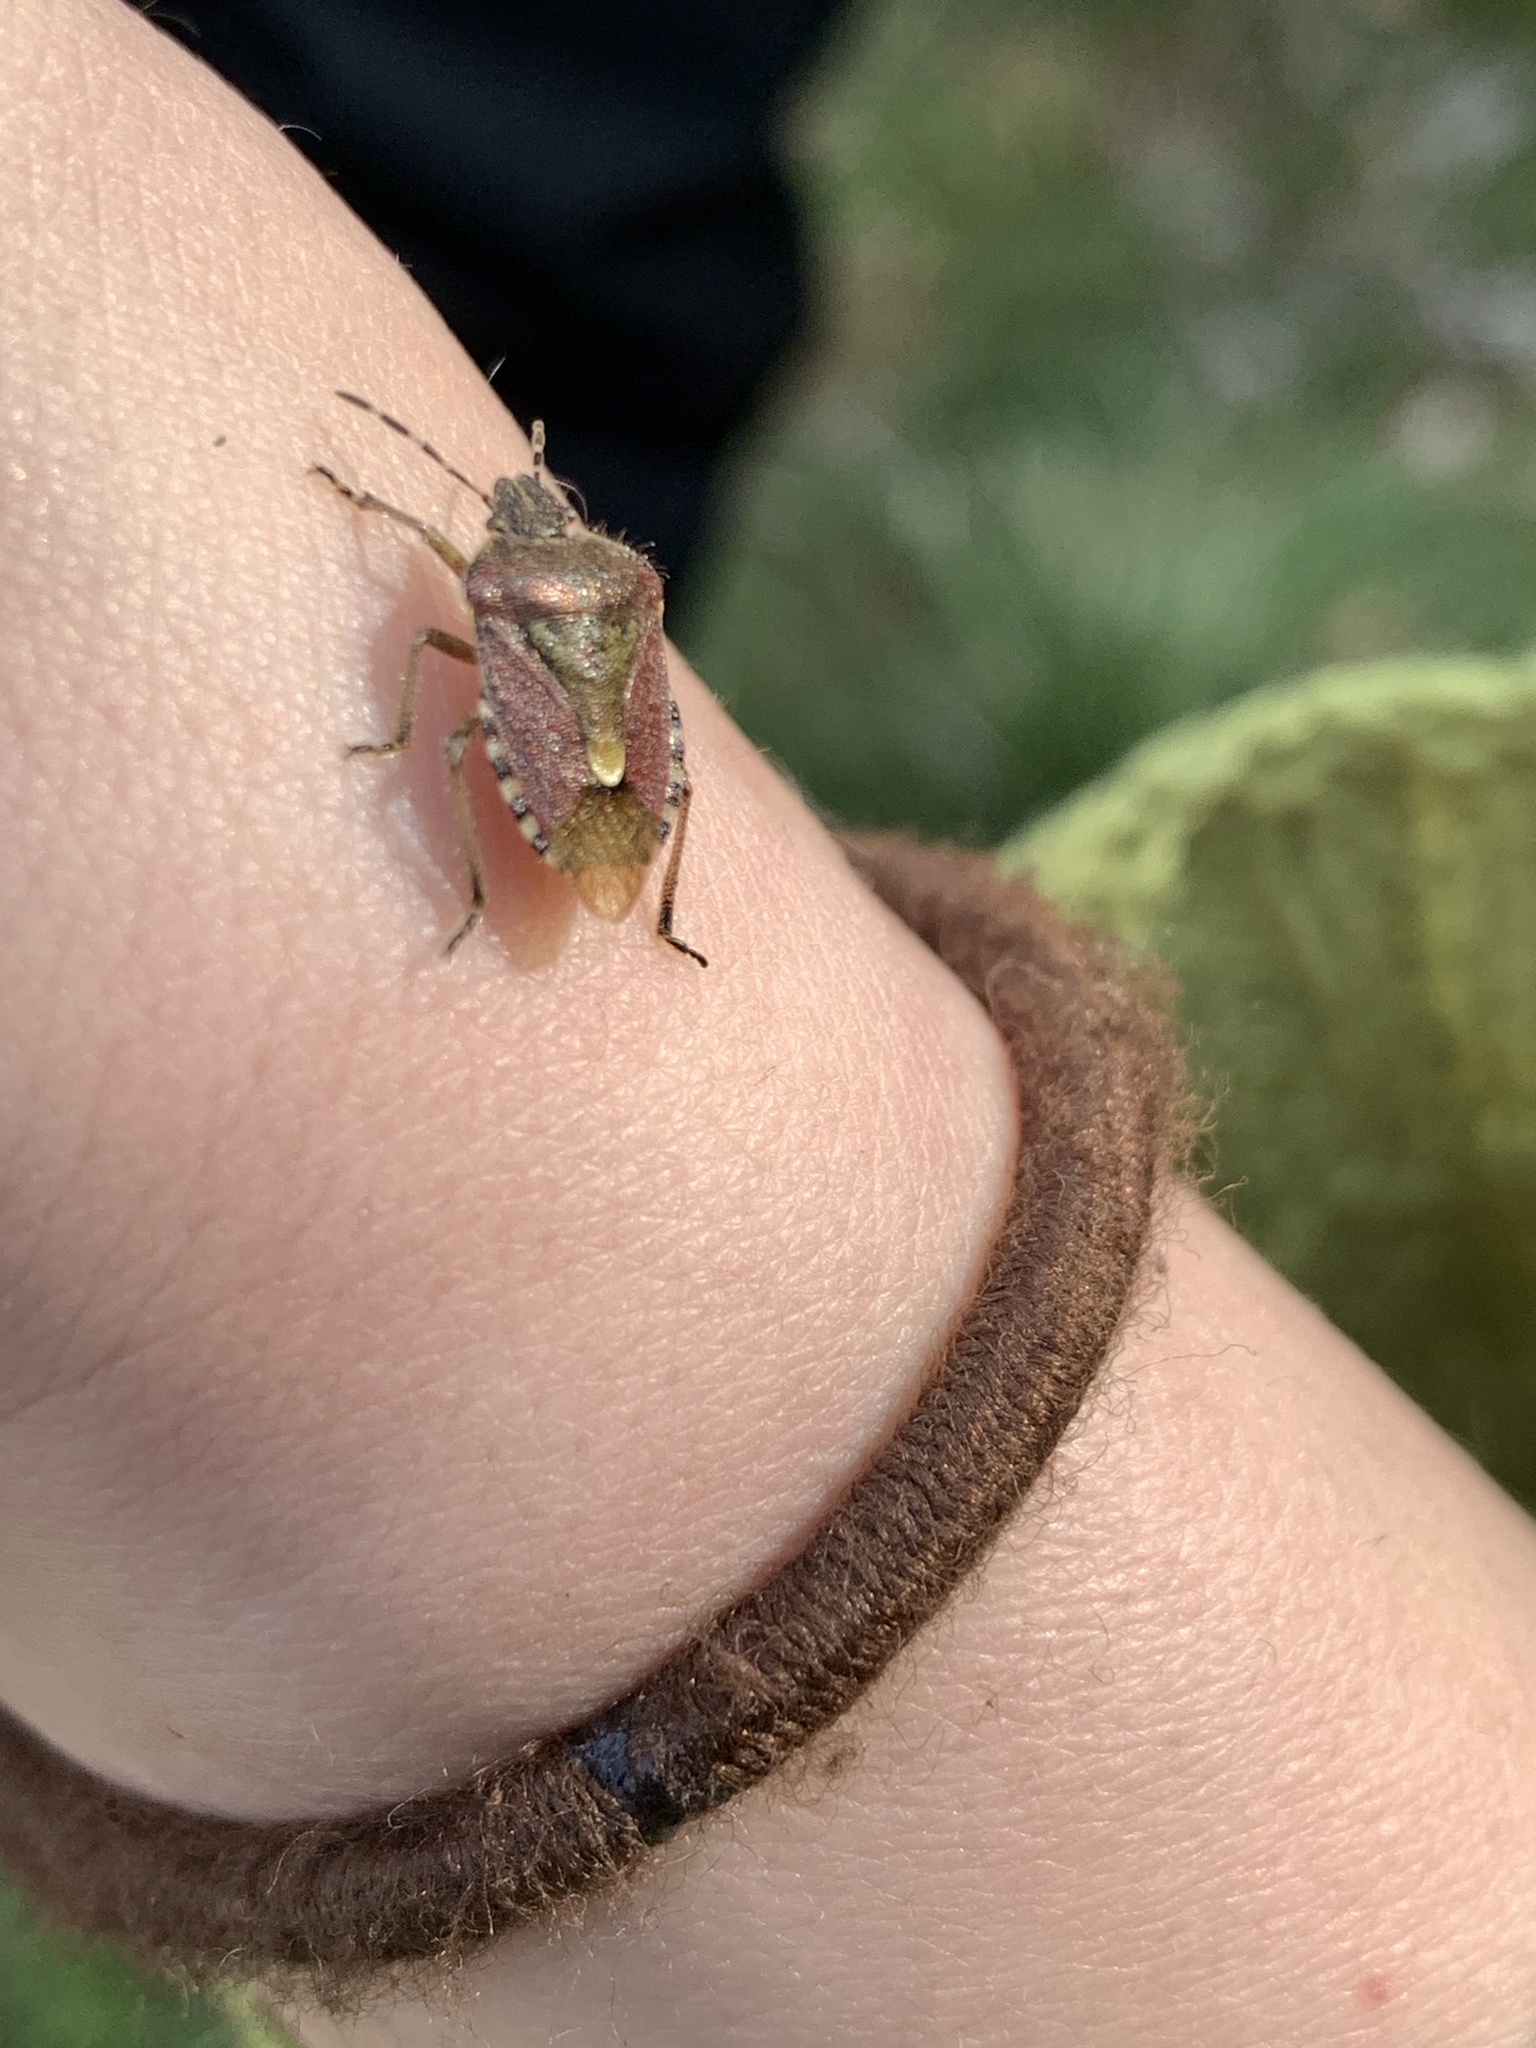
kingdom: Animalia
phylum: Arthropoda
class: Insecta
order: Hemiptera
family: Pentatomidae
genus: Dolycoris
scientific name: Dolycoris baccarum
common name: Sloe bug
